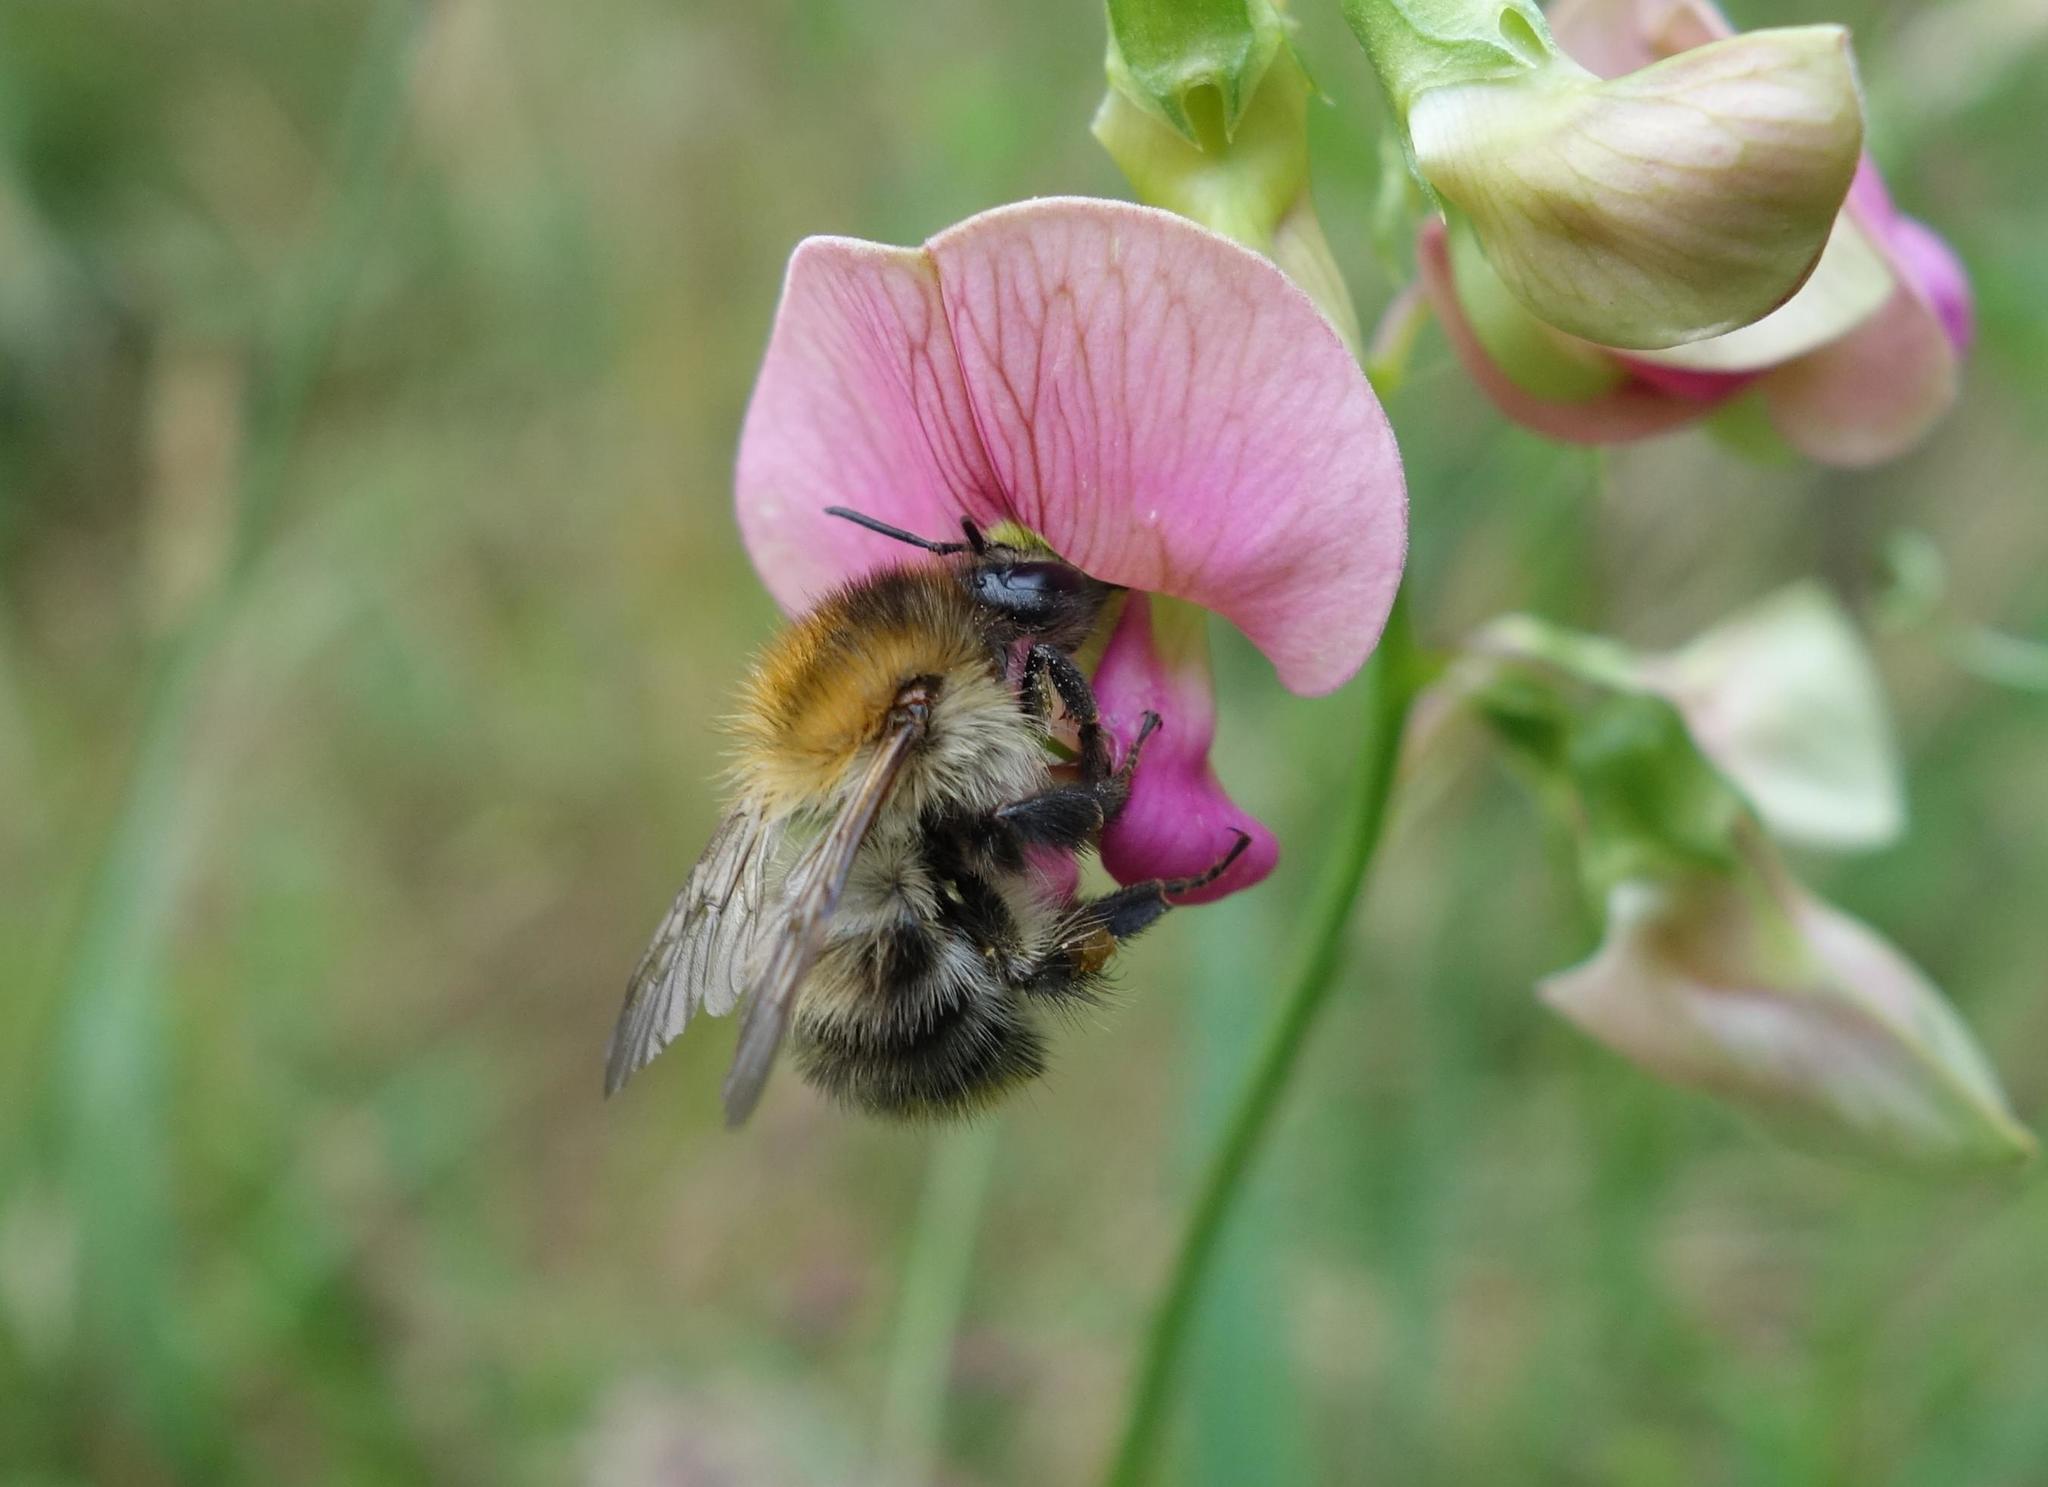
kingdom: Animalia
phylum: Arthropoda
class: Insecta
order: Hymenoptera
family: Apidae
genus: Bombus
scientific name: Bombus pascuorum
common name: Common carder bee
